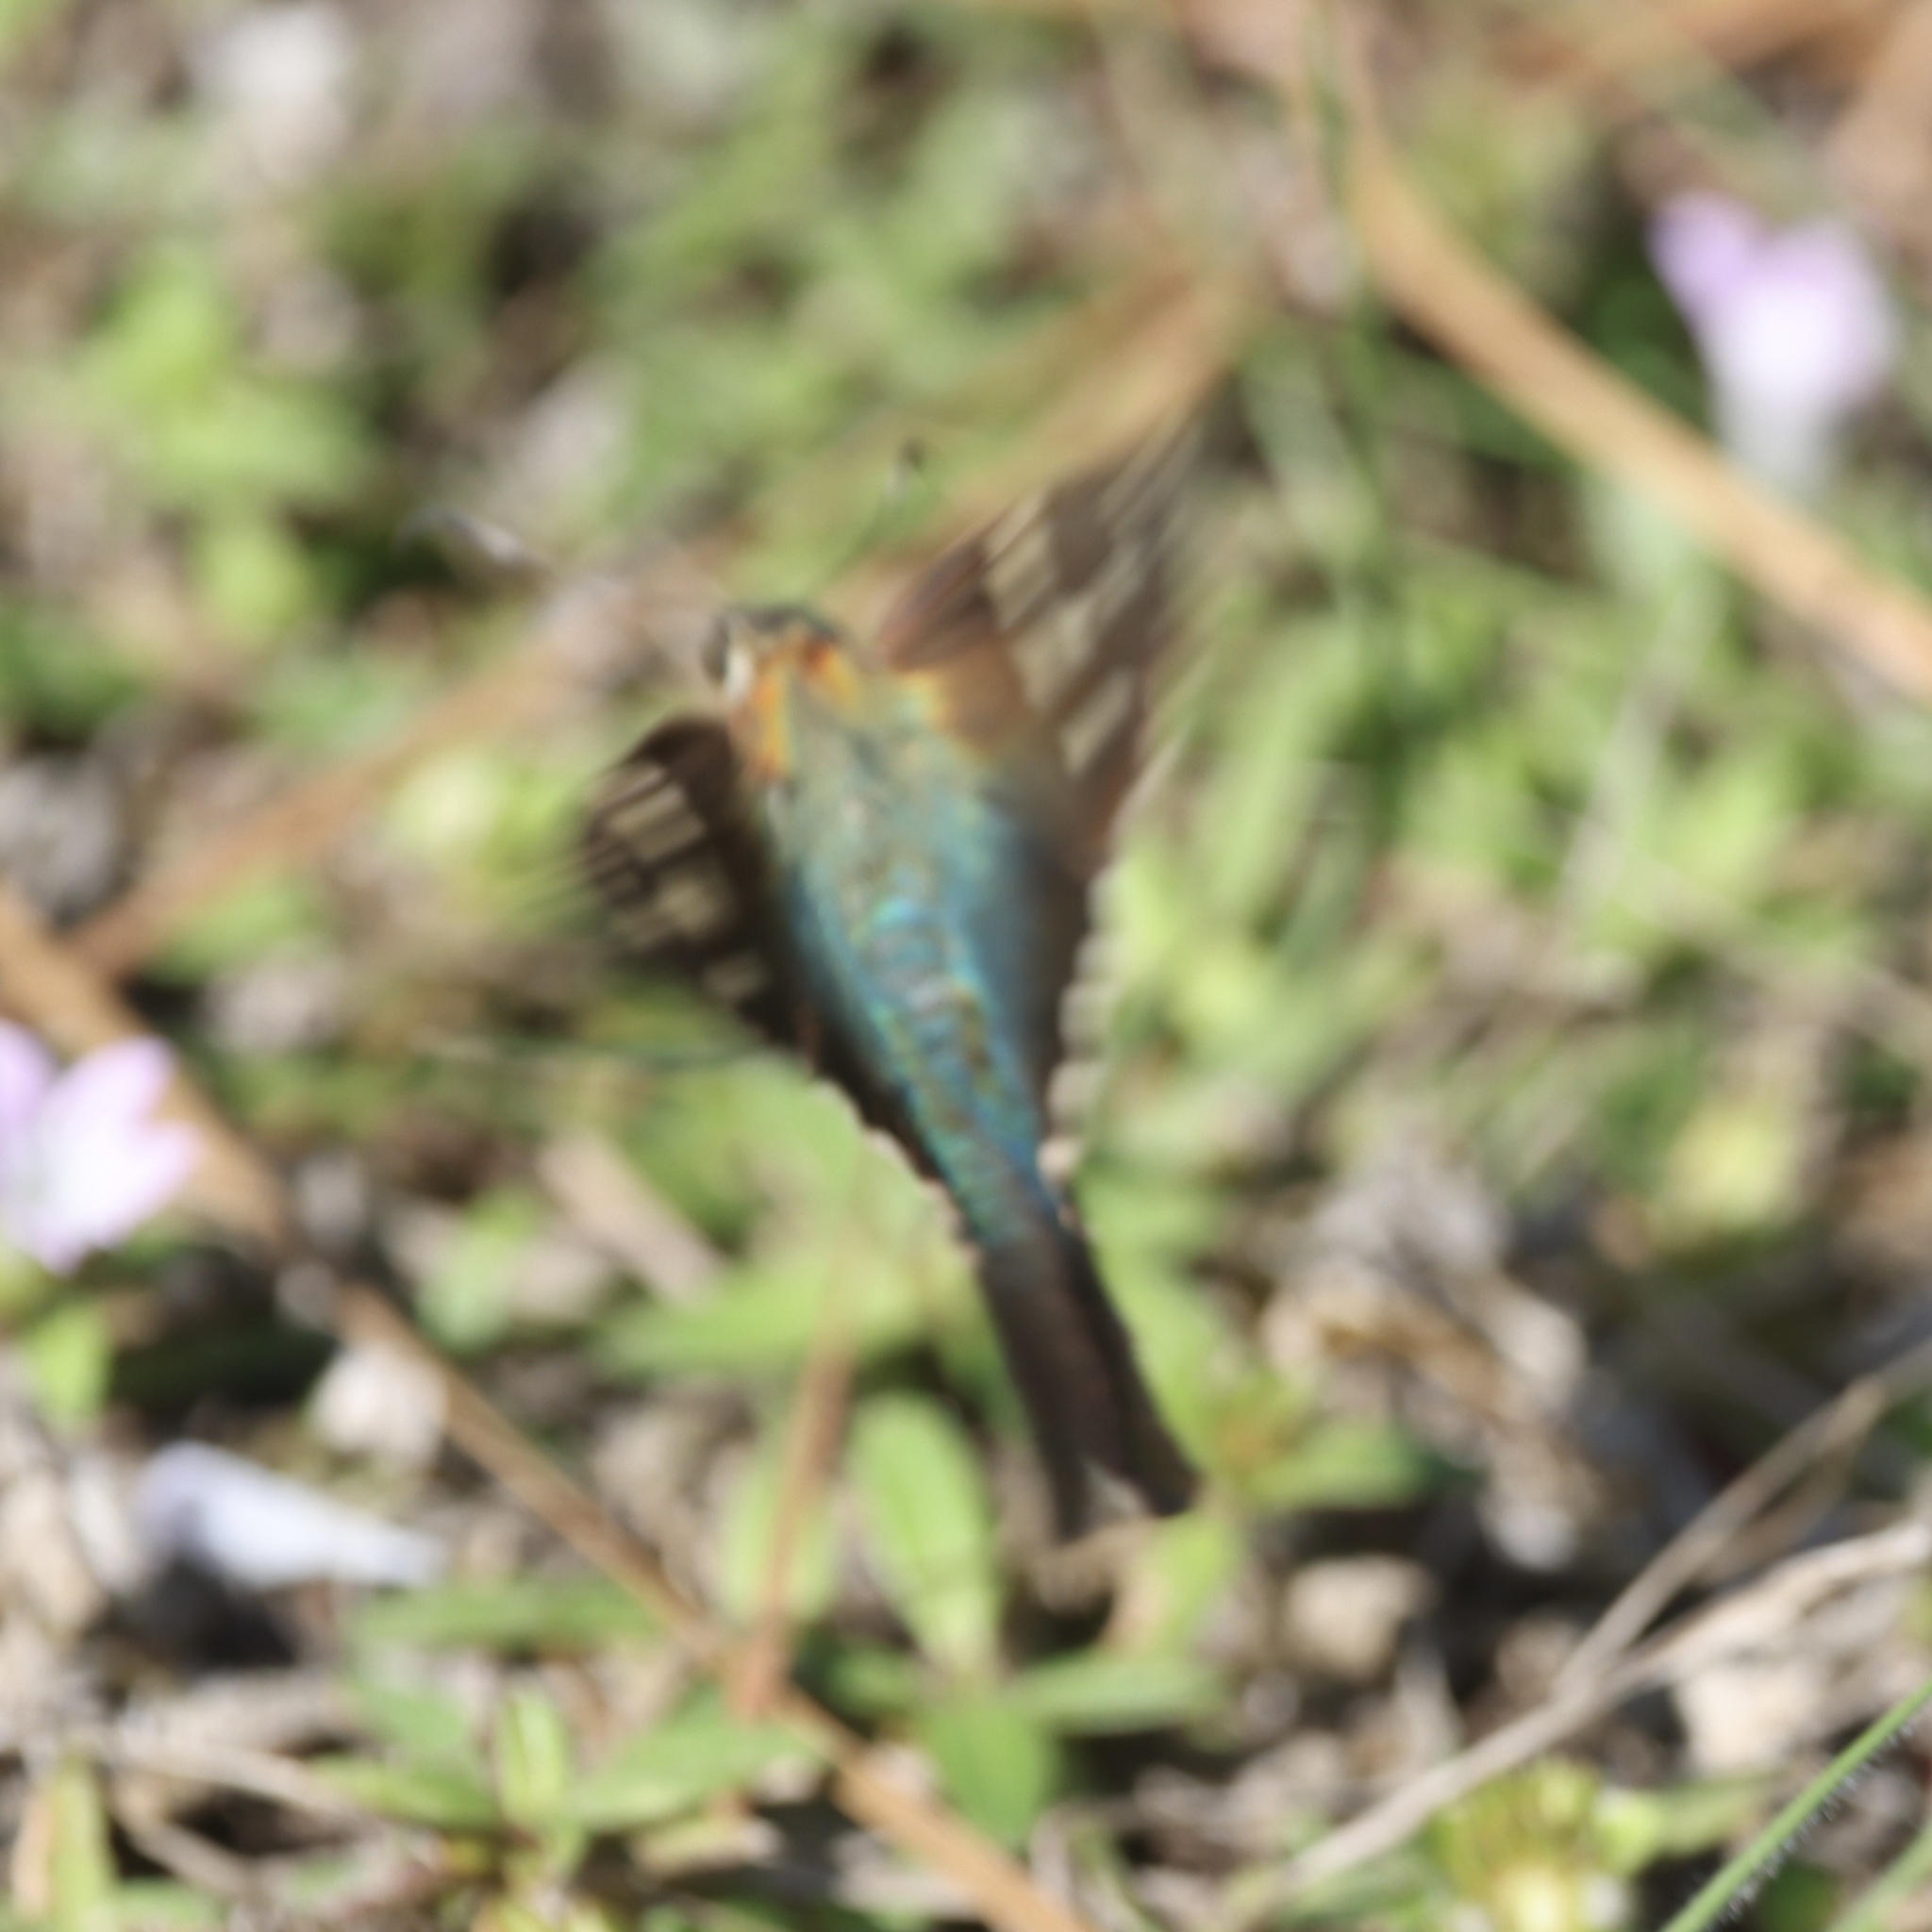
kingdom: Animalia
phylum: Arthropoda
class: Insecta
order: Lepidoptera
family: Hesperiidae
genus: Urbanus
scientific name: Urbanus proteus
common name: Long-tailed skipper
